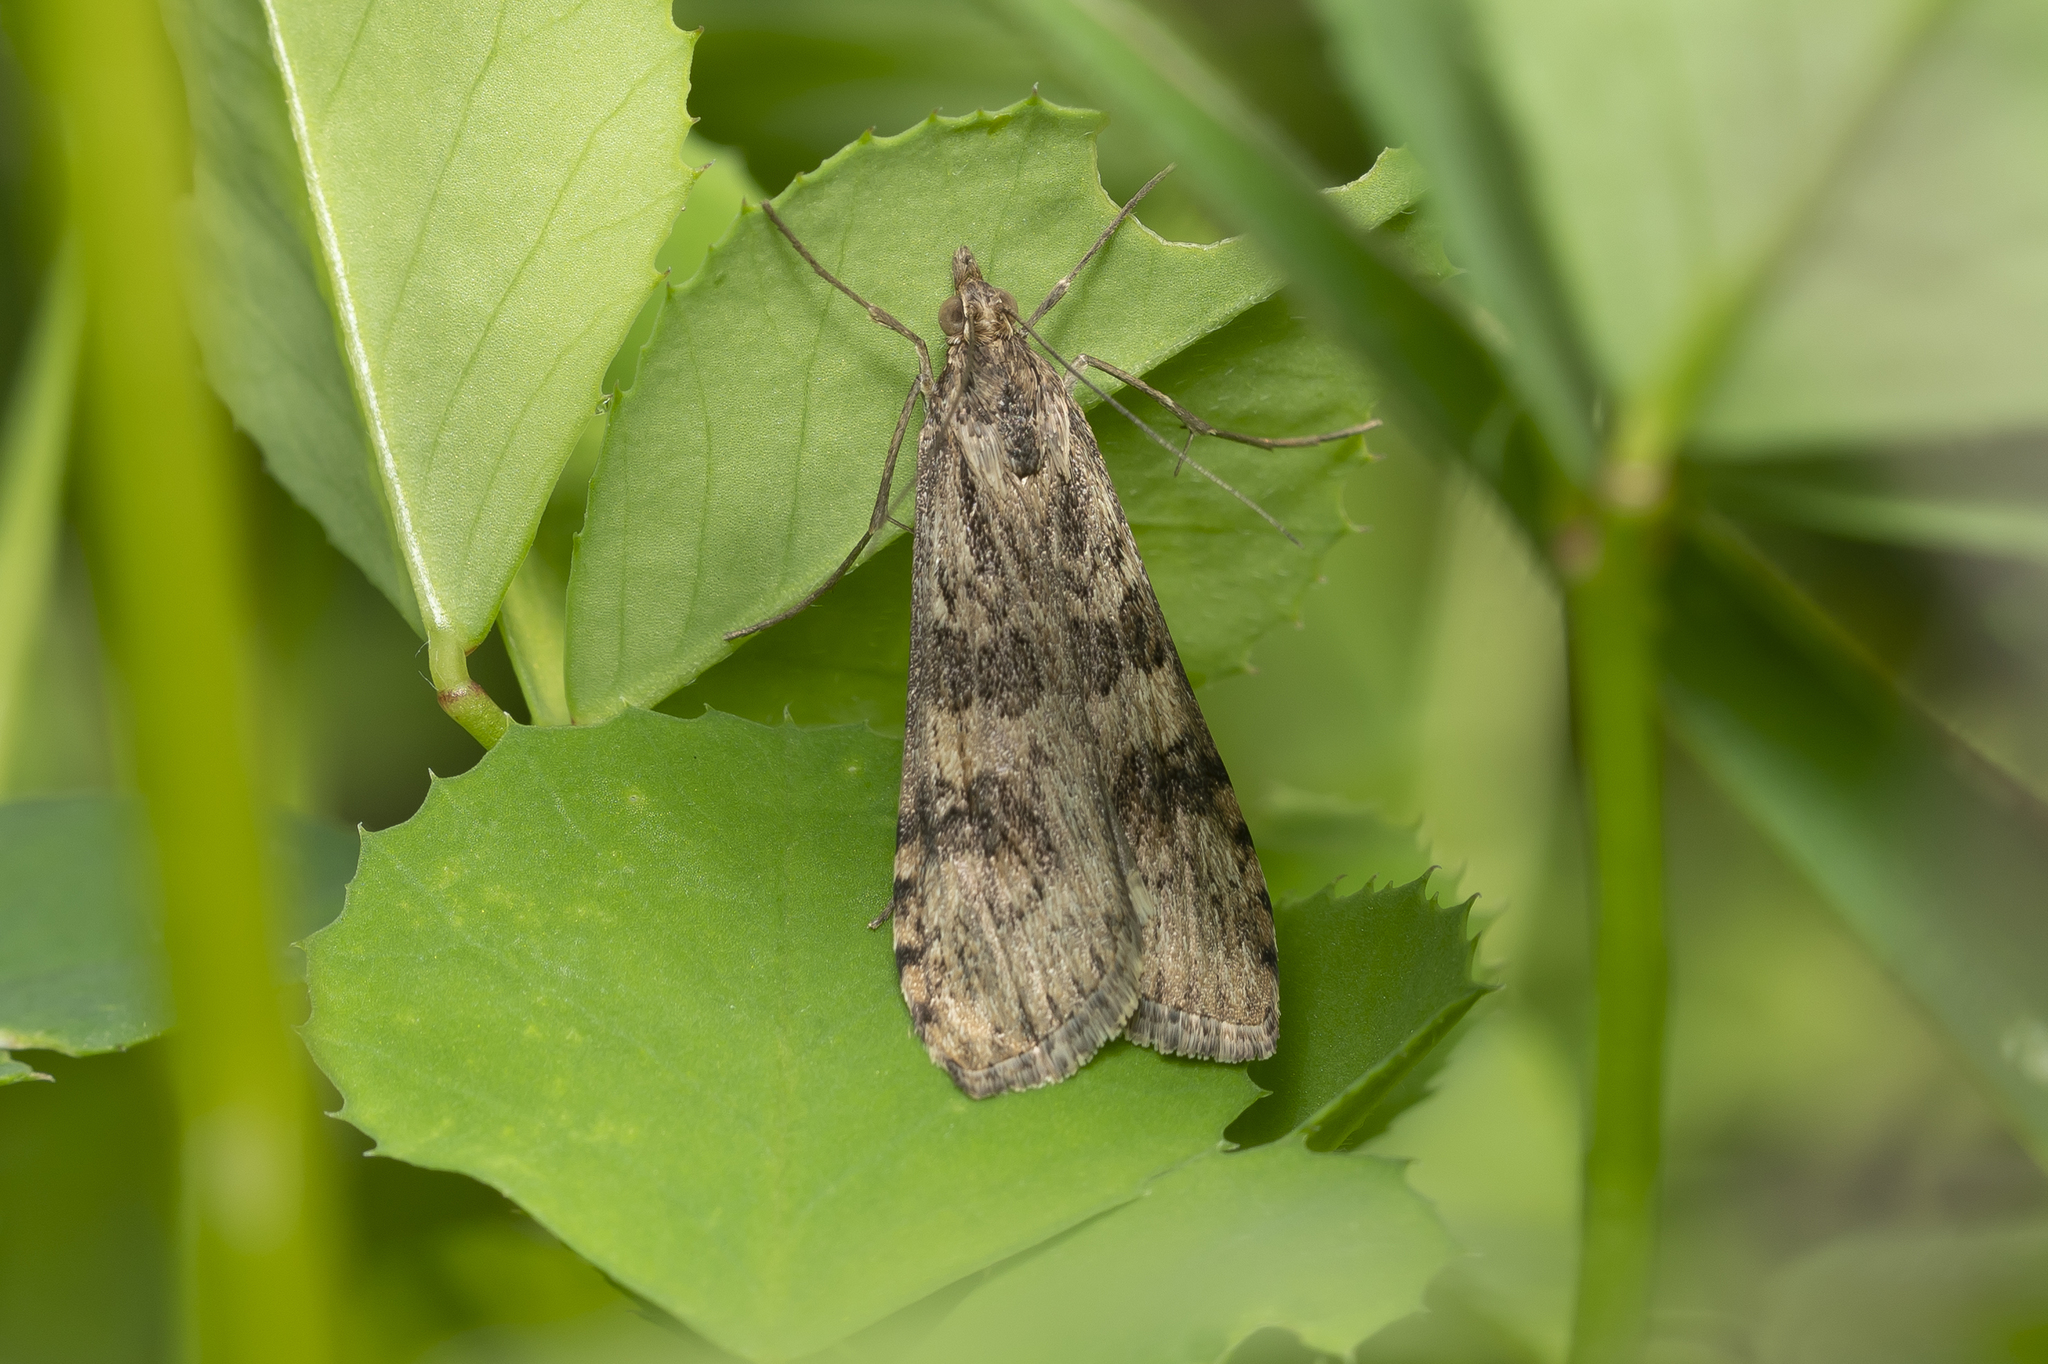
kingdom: Animalia
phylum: Arthropoda
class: Insecta
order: Lepidoptera
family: Crambidae
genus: Nomophila
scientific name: Nomophila noctuella
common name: Rush veneer
